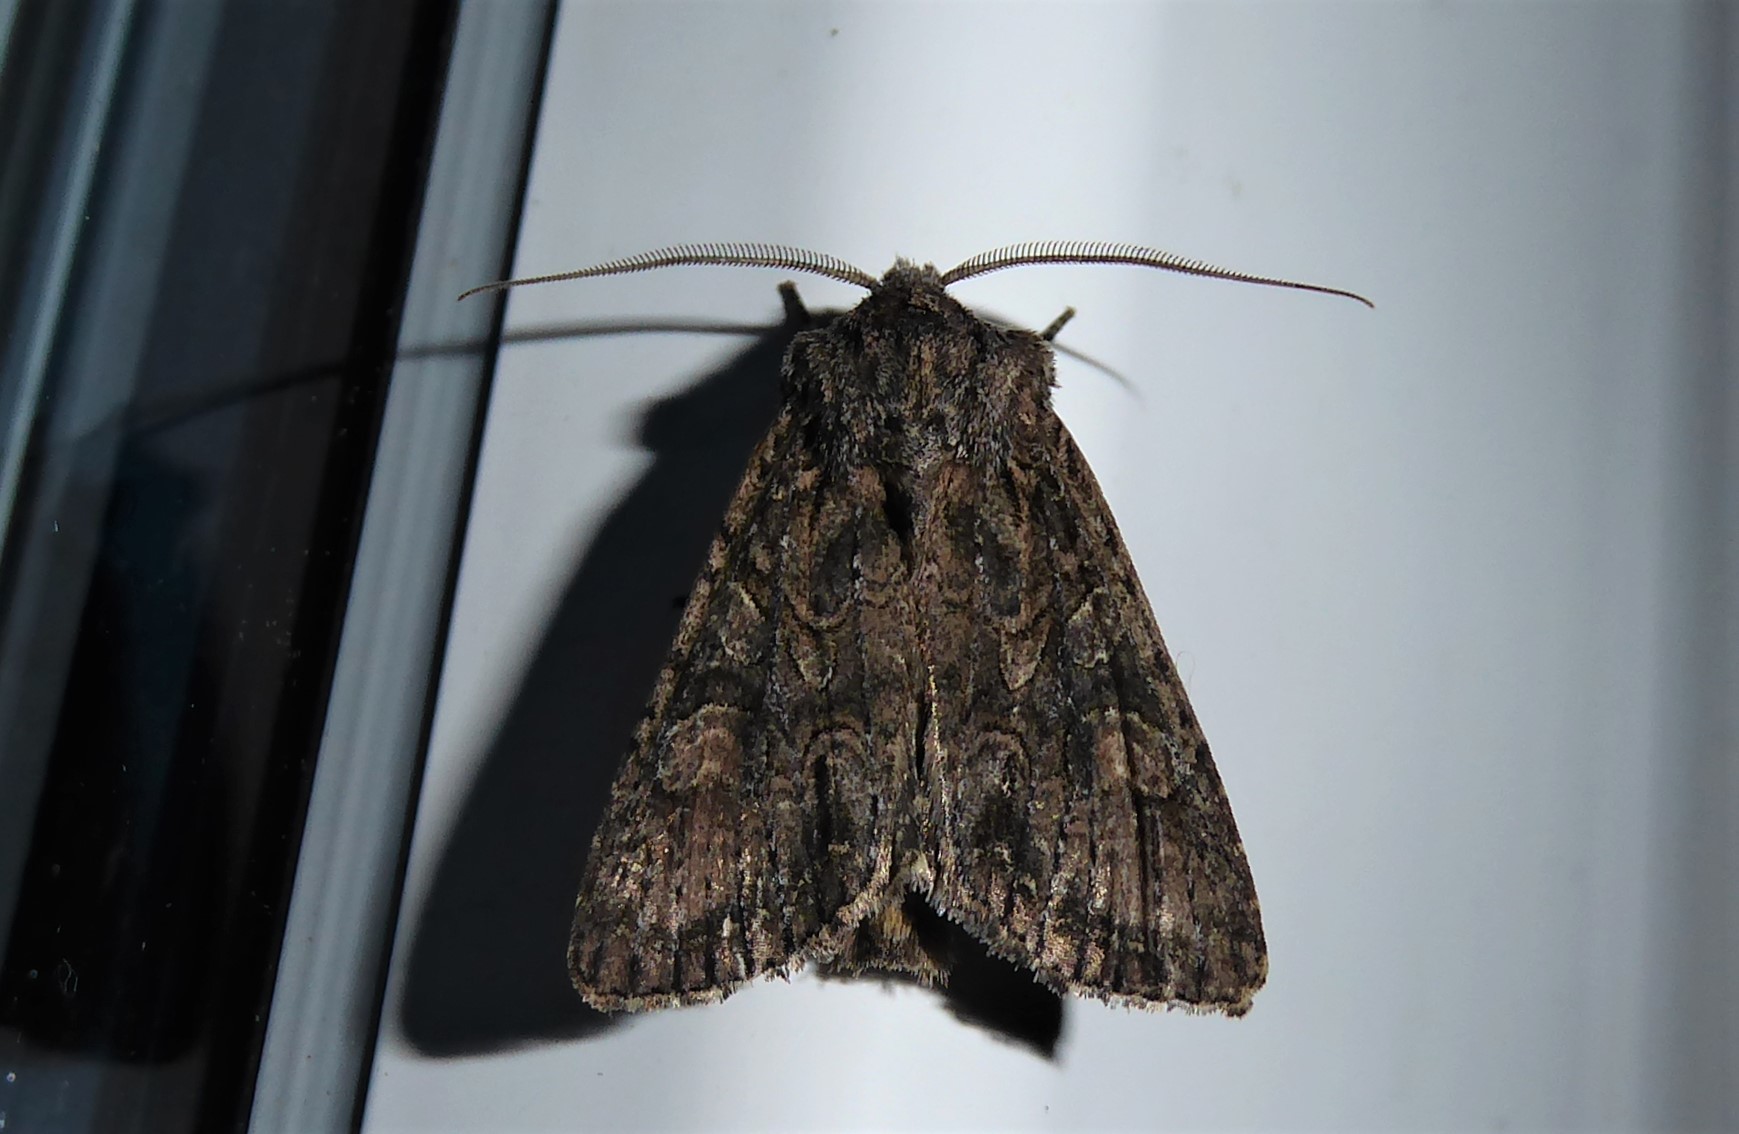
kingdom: Animalia
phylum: Arthropoda
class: Insecta
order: Lepidoptera
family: Noctuidae
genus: Ichneutica
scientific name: Ichneutica mutans
